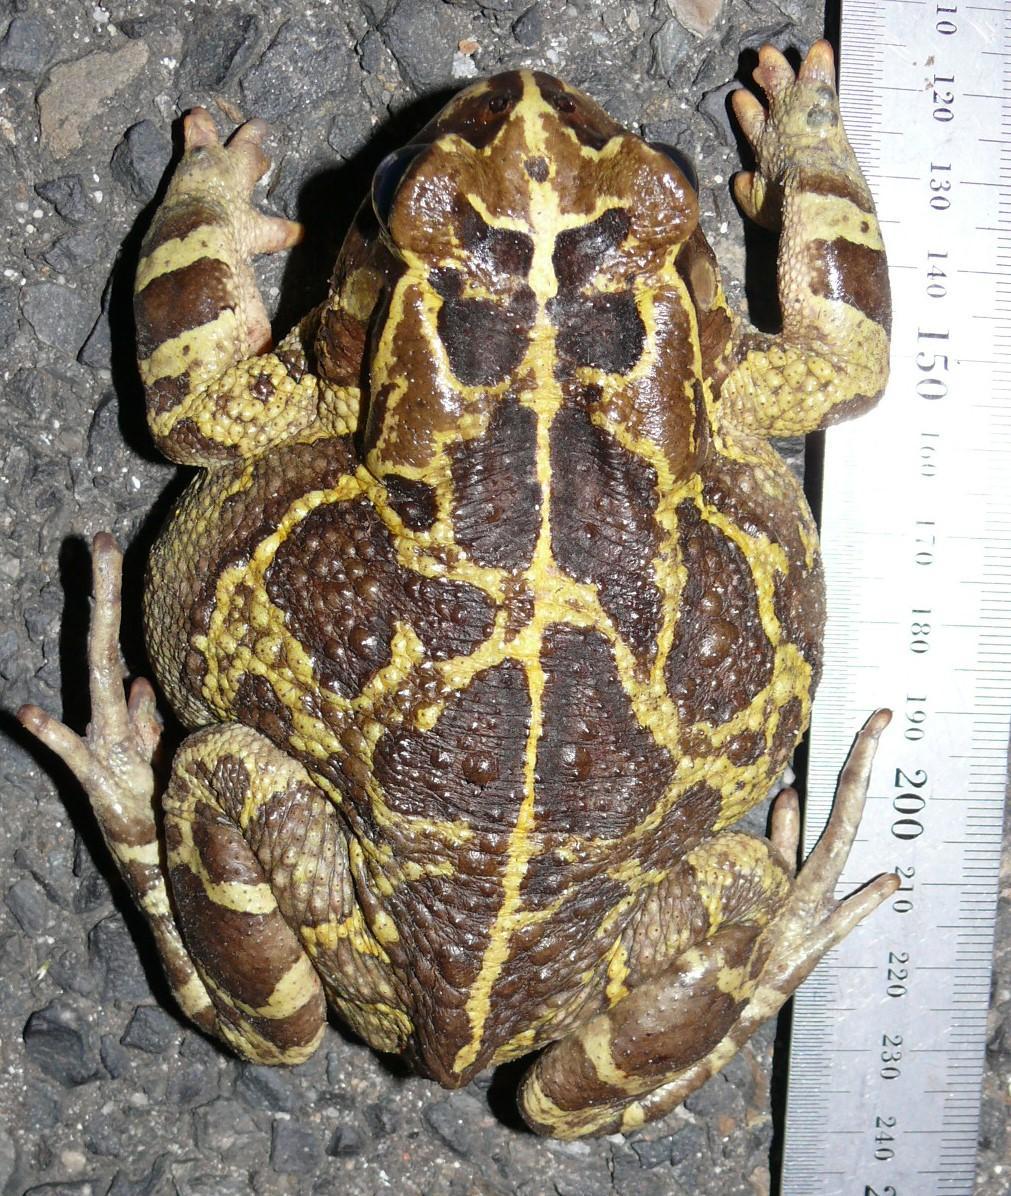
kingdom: Animalia
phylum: Chordata
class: Amphibia
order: Anura
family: Bufonidae
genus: Sclerophrys
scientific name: Sclerophrys pantherina
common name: Panther toad
